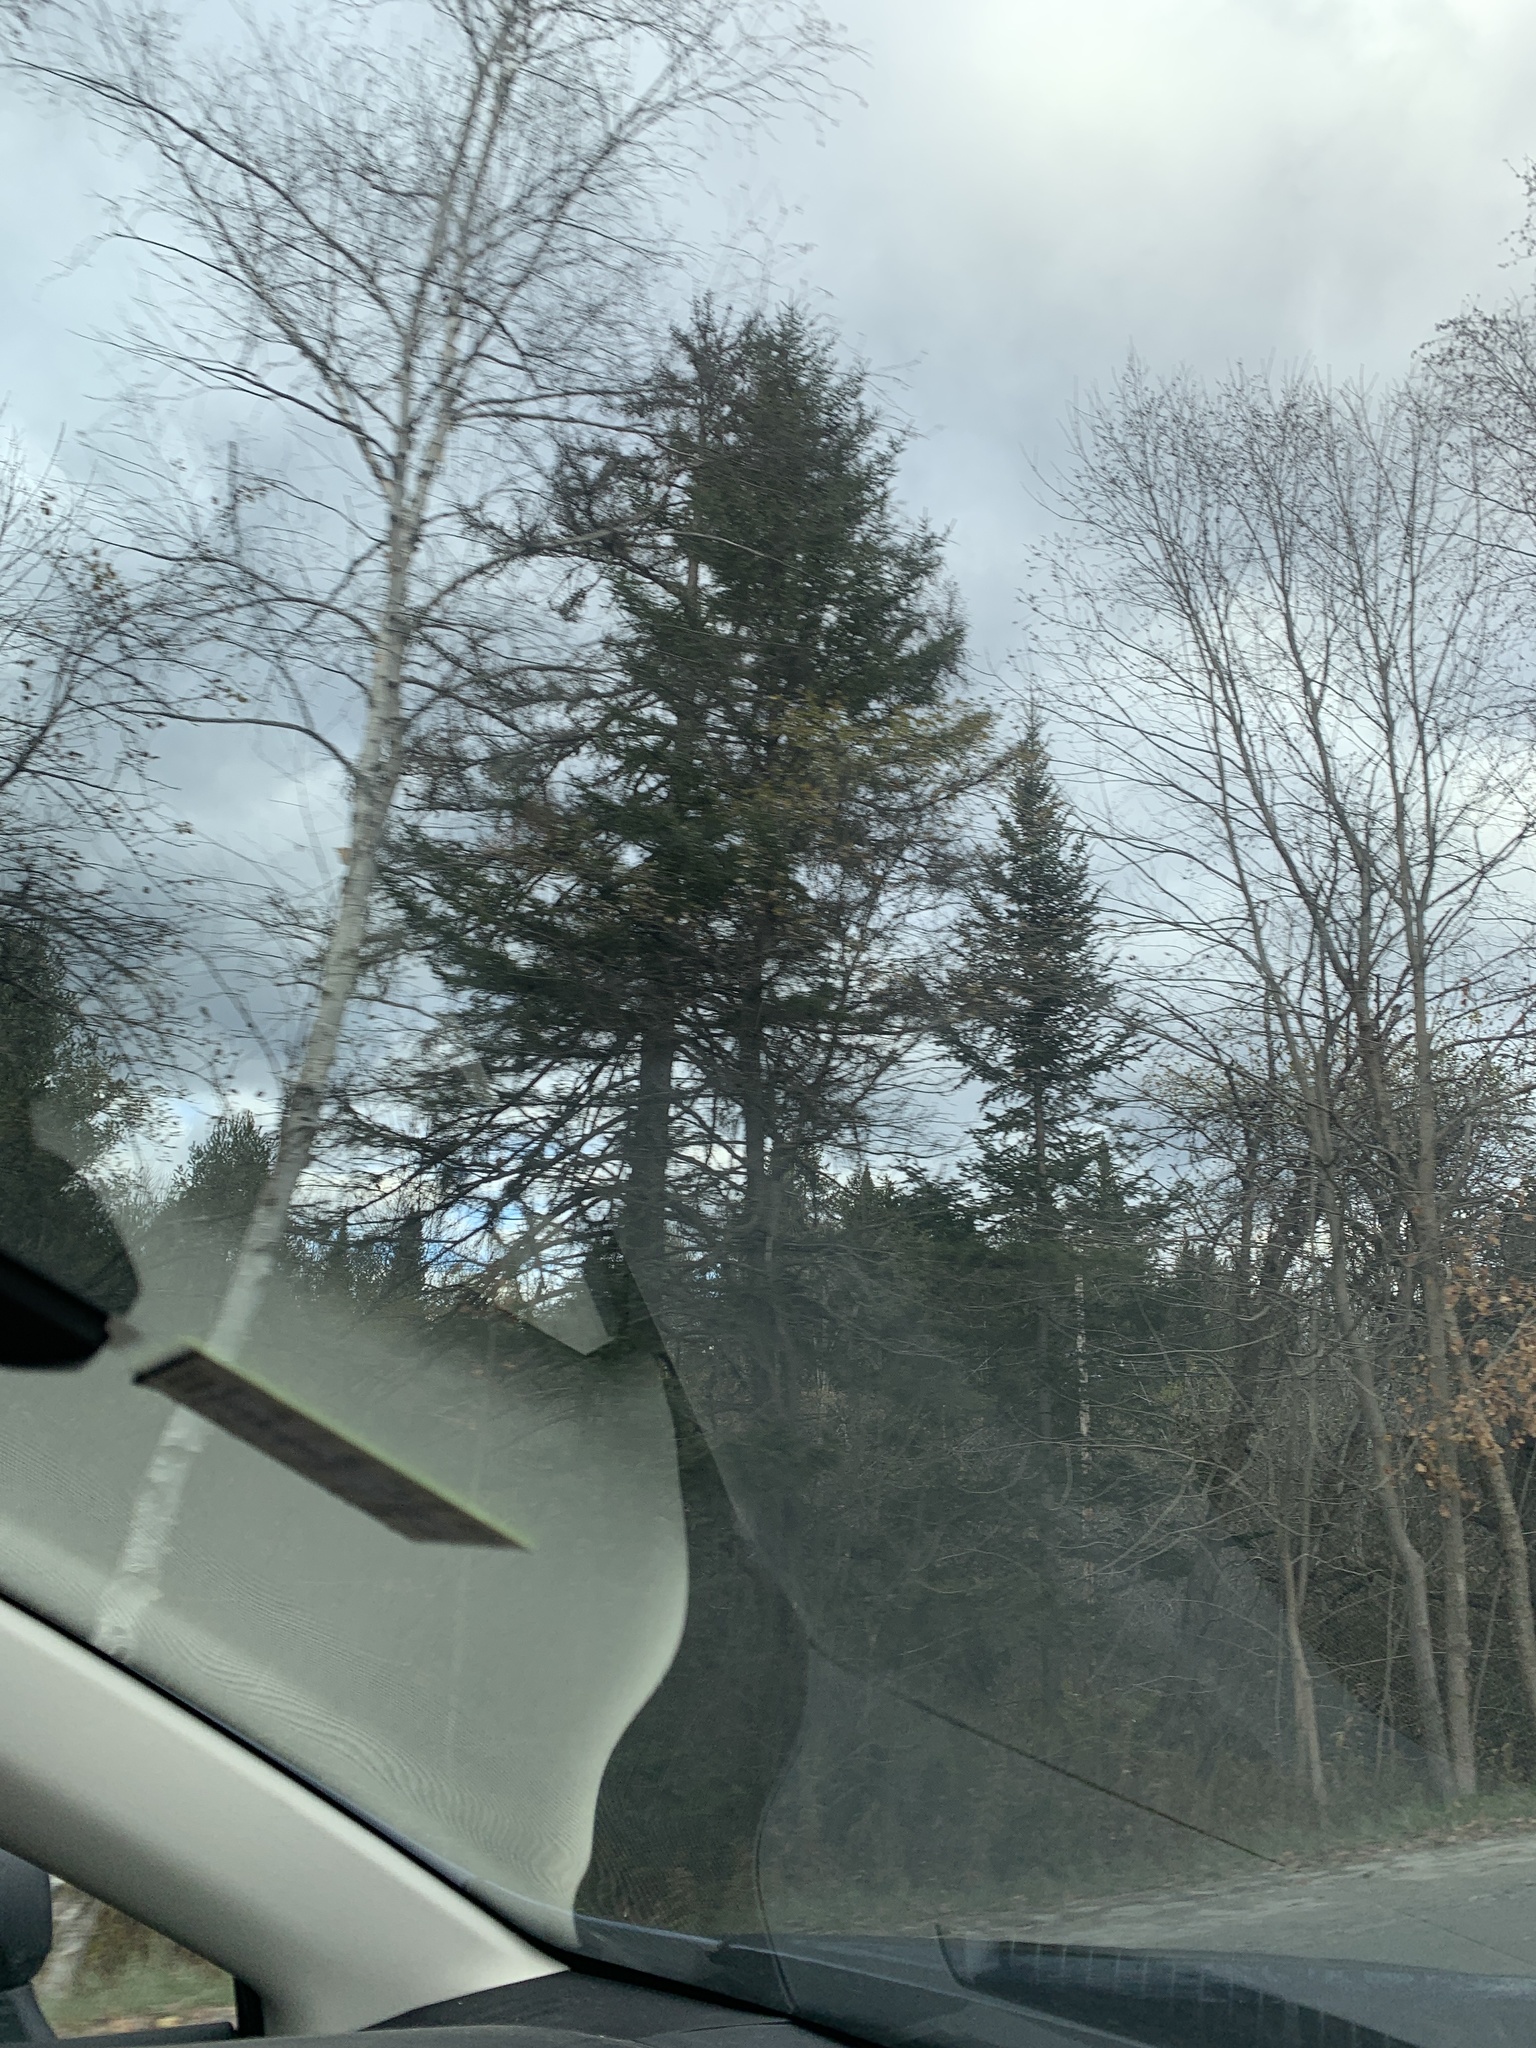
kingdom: Plantae
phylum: Tracheophyta
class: Pinopsida
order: Pinales
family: Pinaceae
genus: Larix
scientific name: Larix laricina
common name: American larch
